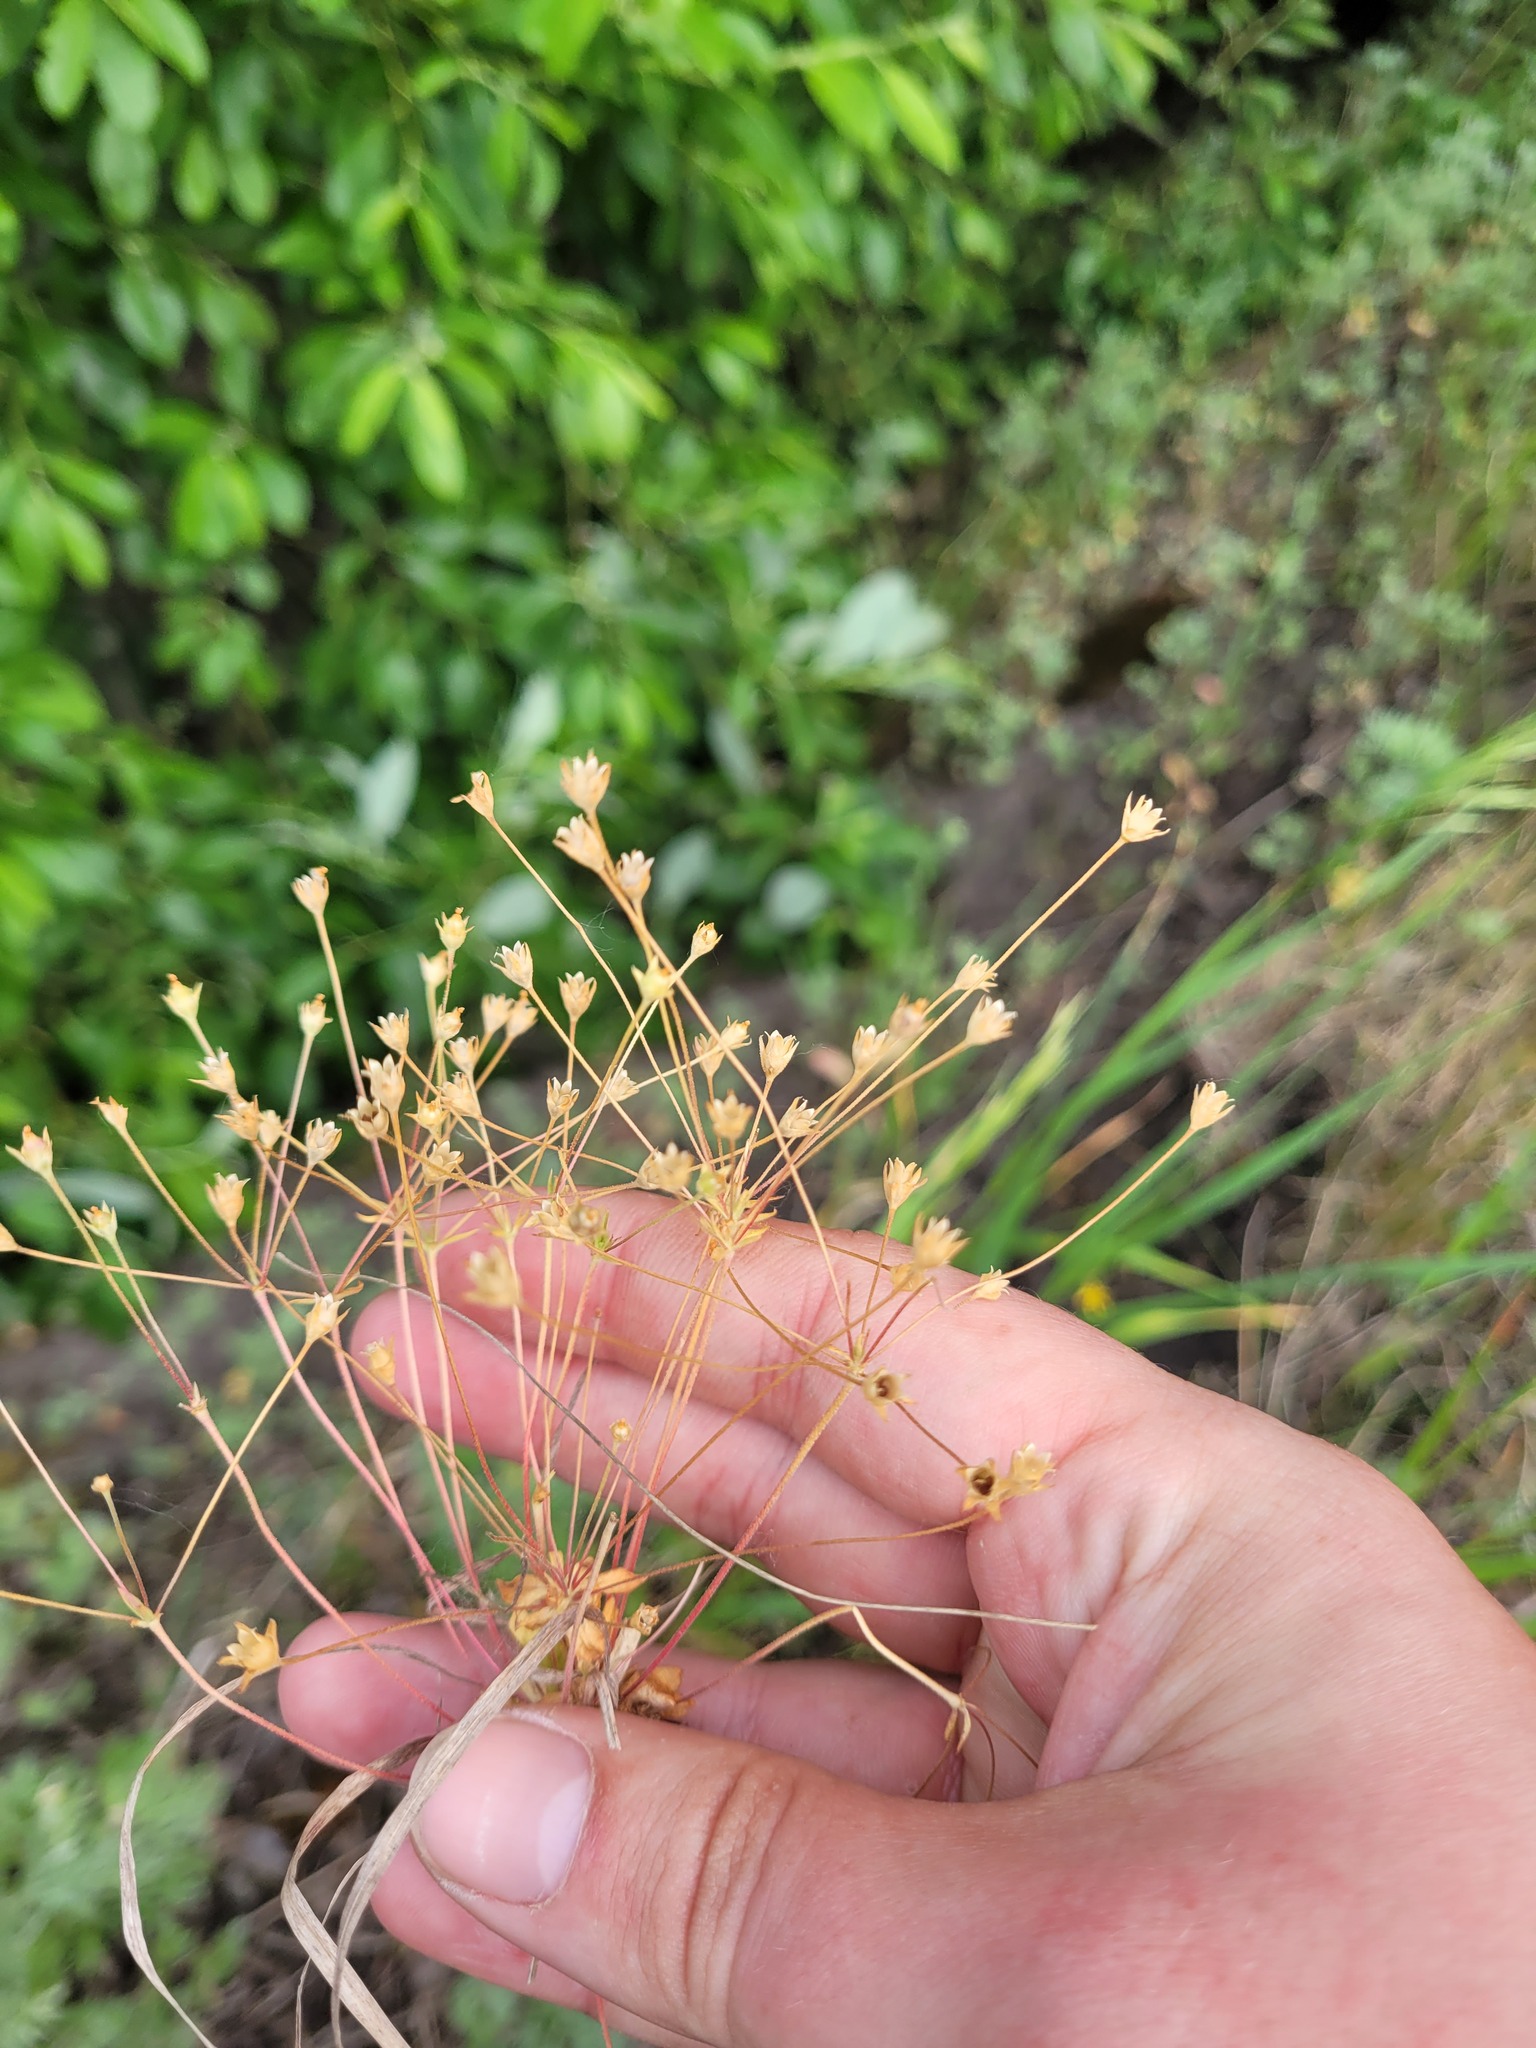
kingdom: Plantae
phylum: Tracheophyta
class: Magnoliopsida
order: Ericales
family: Primulaceae
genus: Androsace
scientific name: Androsace elongata
